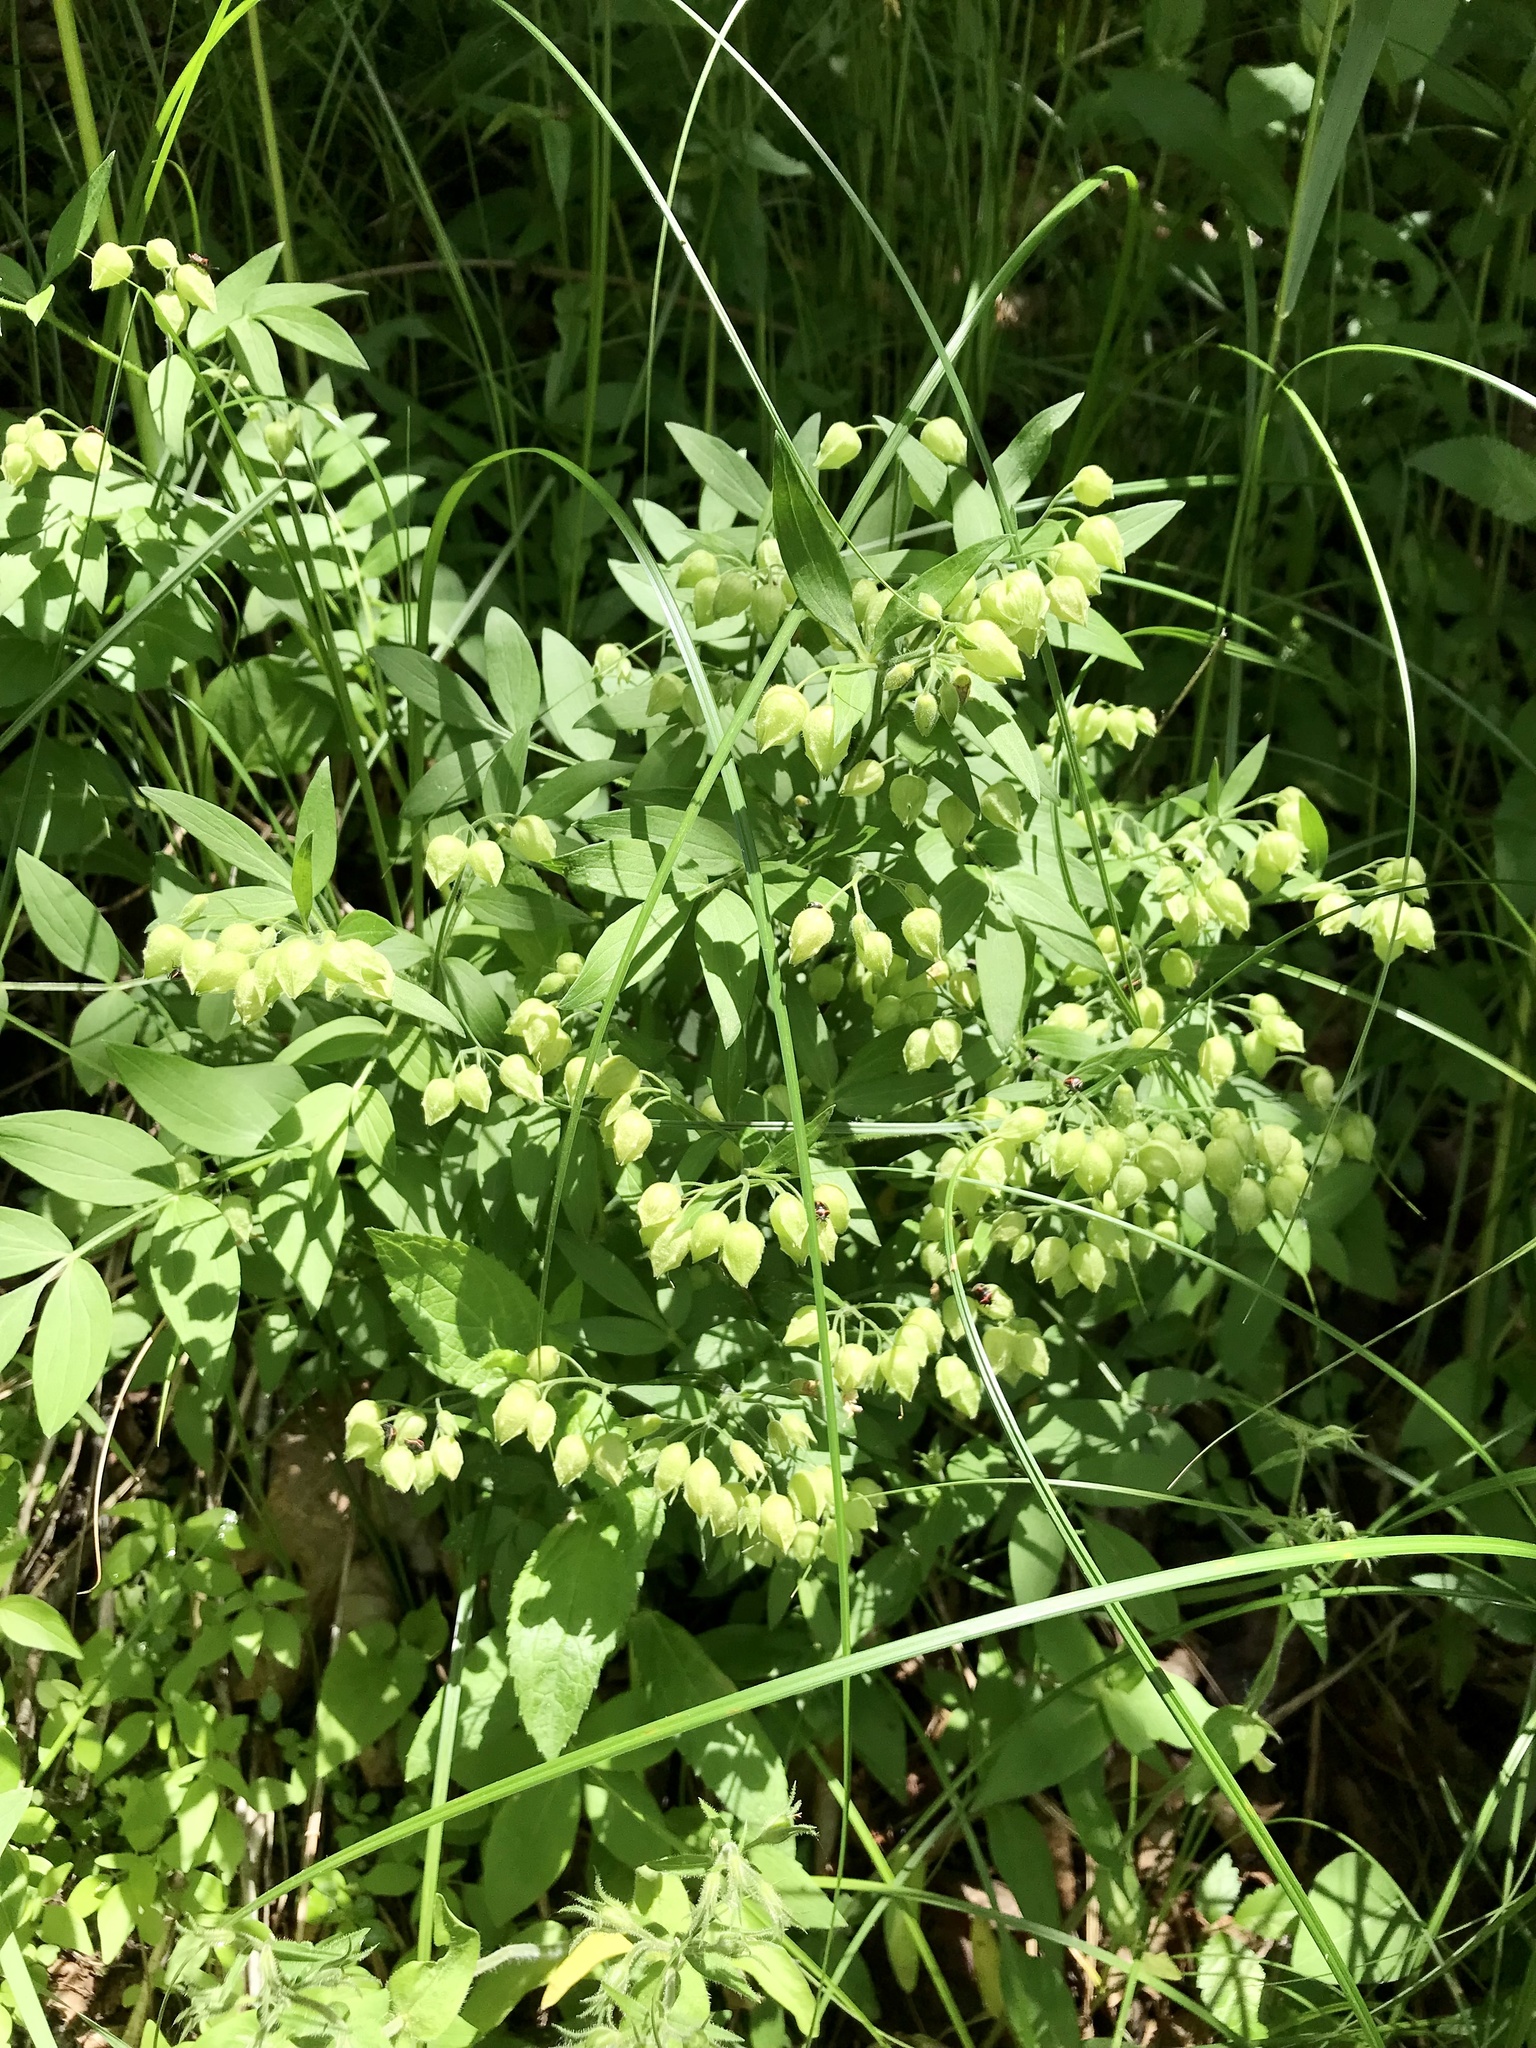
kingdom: Plantae
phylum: Tracheophyta
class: Magnoliopsida
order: Ericales
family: Polemoniaceae
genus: Polemonium
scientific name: Polemonium reptans
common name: Creeping jacob's-ladder
